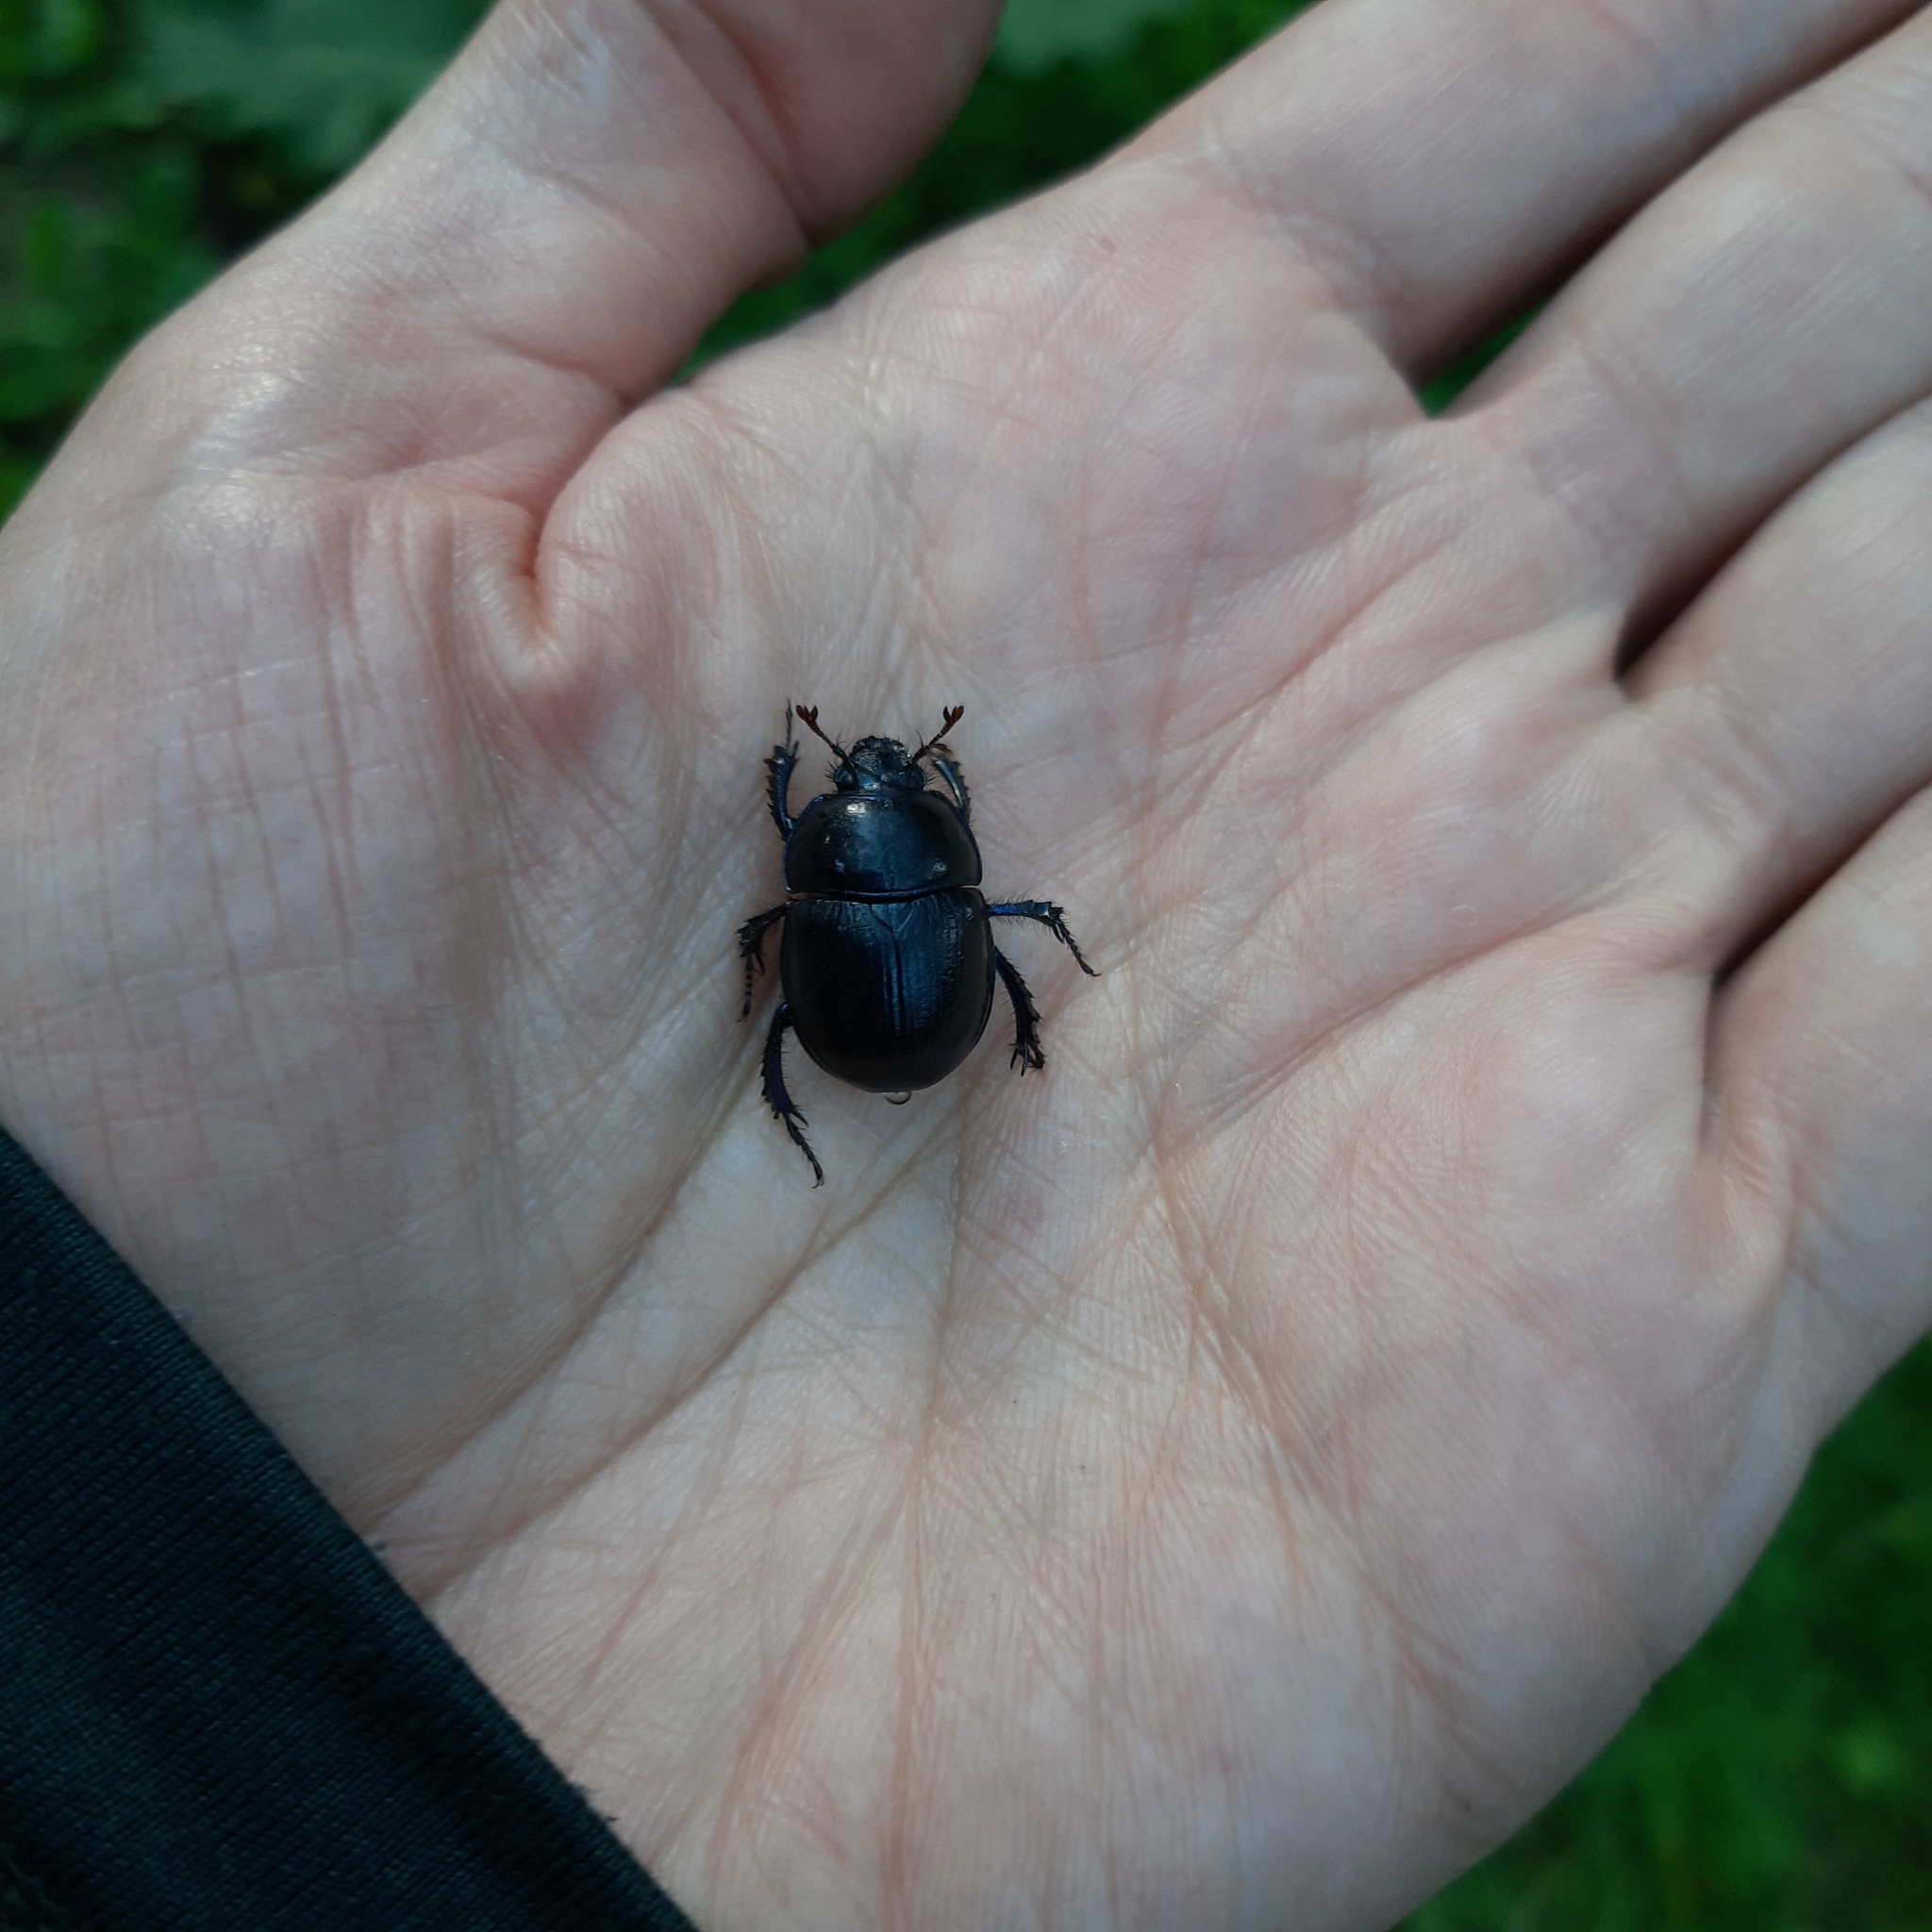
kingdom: Animalia
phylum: Arthropoda
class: Insecta
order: Coleoptera
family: Geotrupidae
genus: Anoplotrupes
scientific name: Anoplotrupes stercorosus
